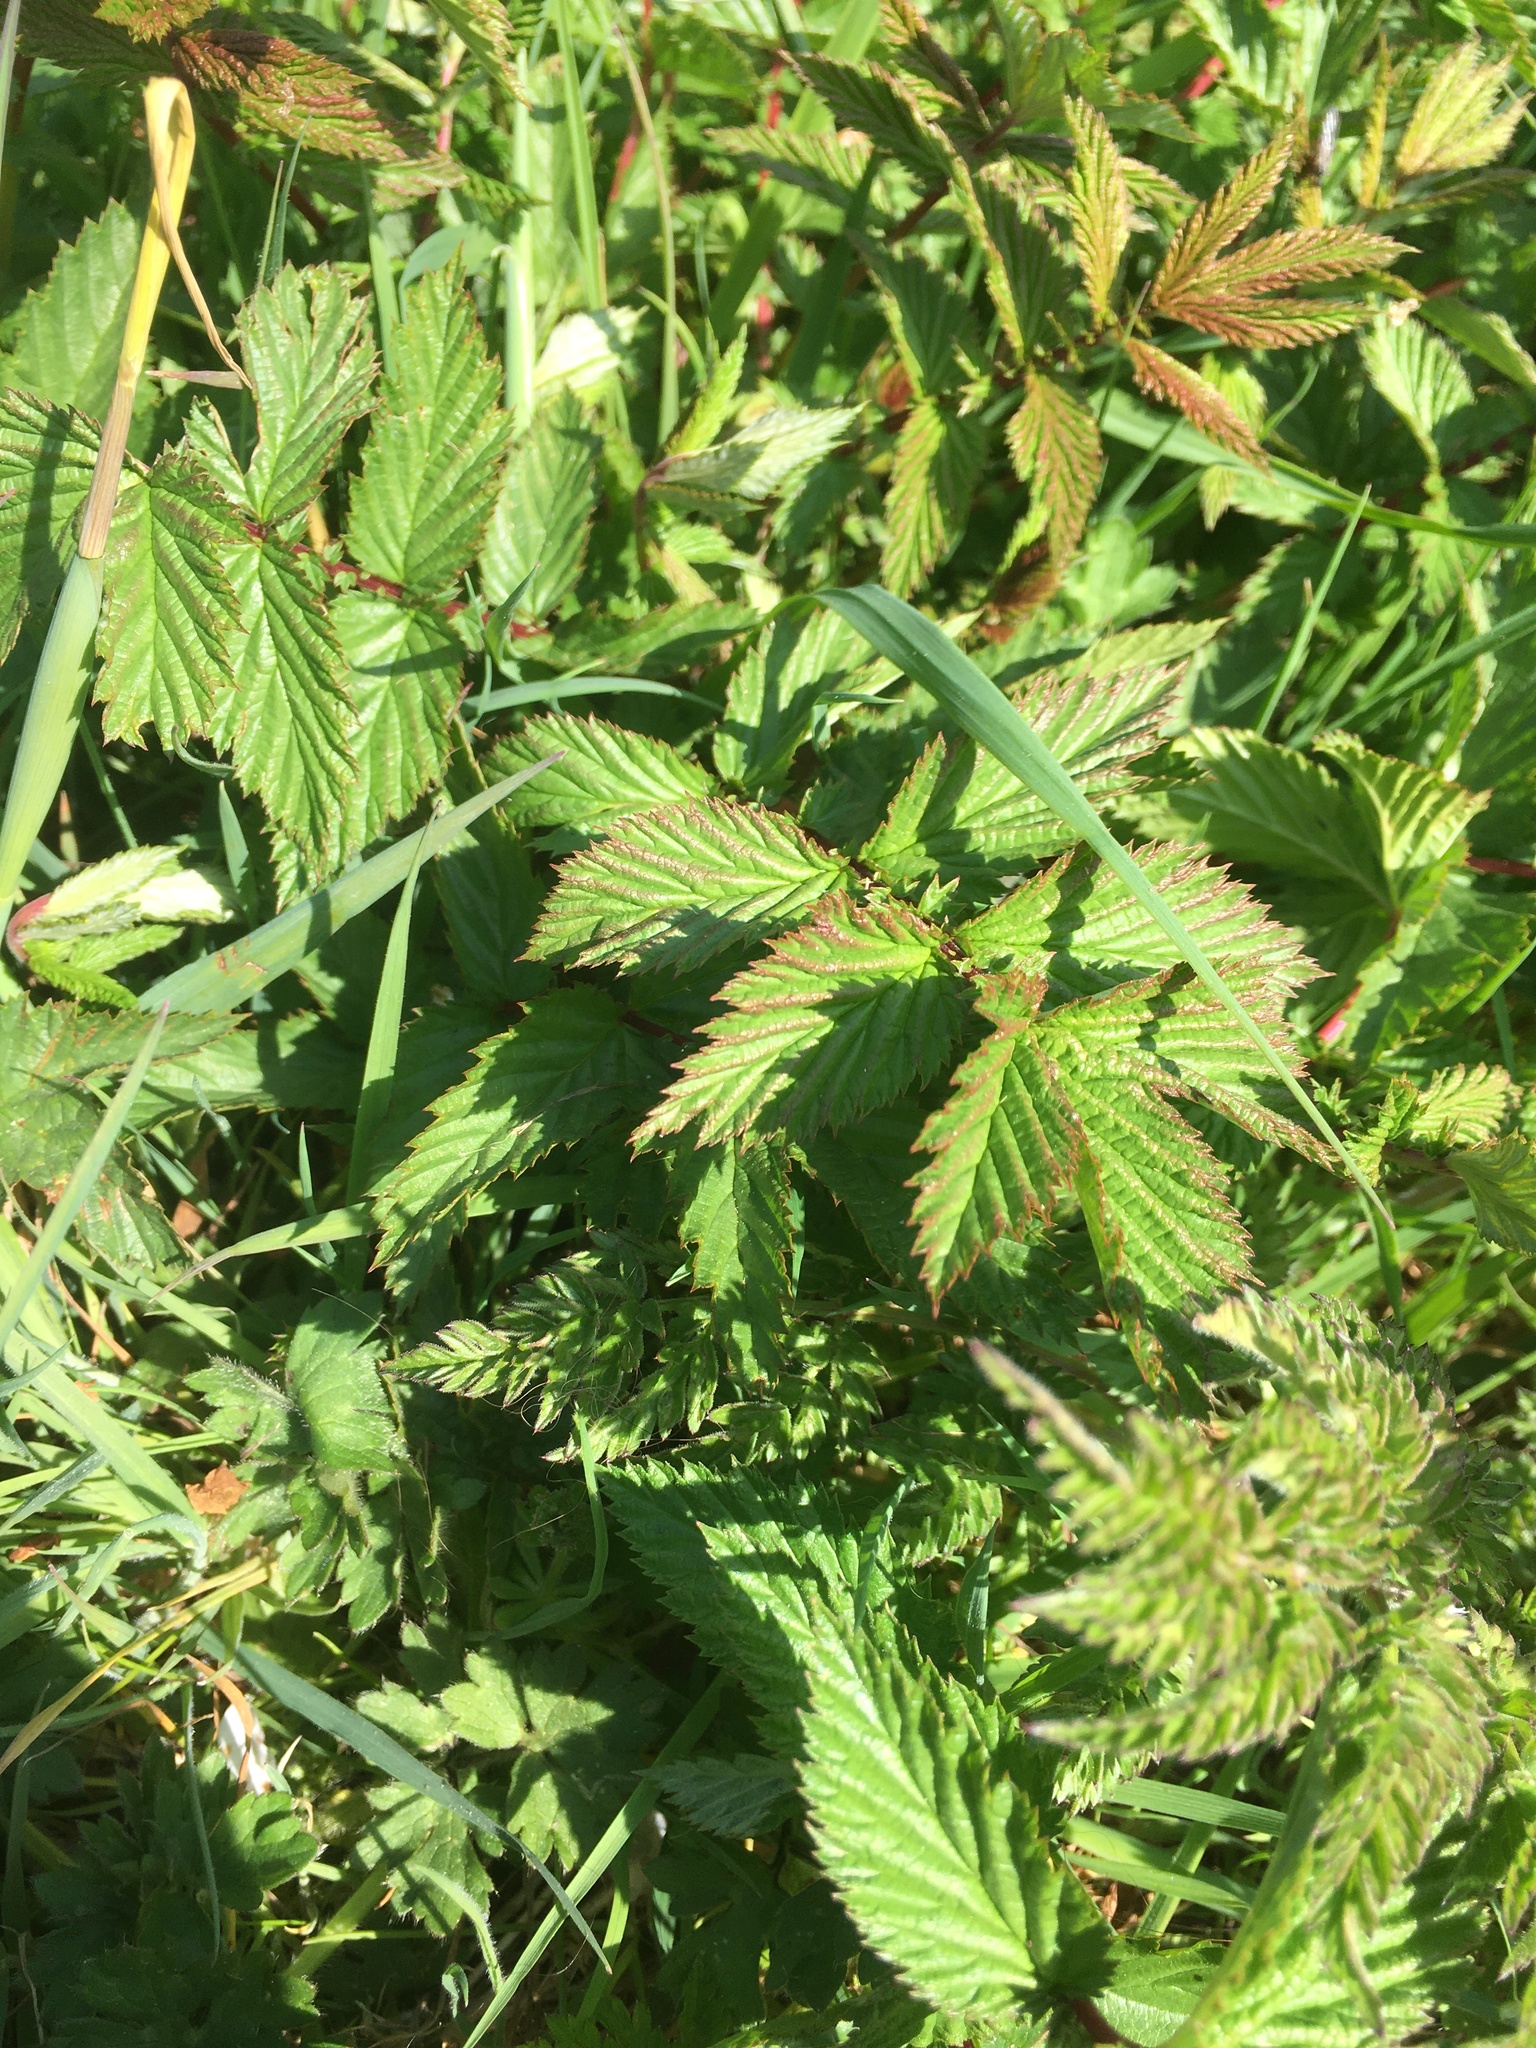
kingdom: Plantae
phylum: Tracheophyta
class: Magnoliopsida
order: Rosales
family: Rosaceae
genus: Filipendula
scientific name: Filipendula ulmaria
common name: Meadowsweet
